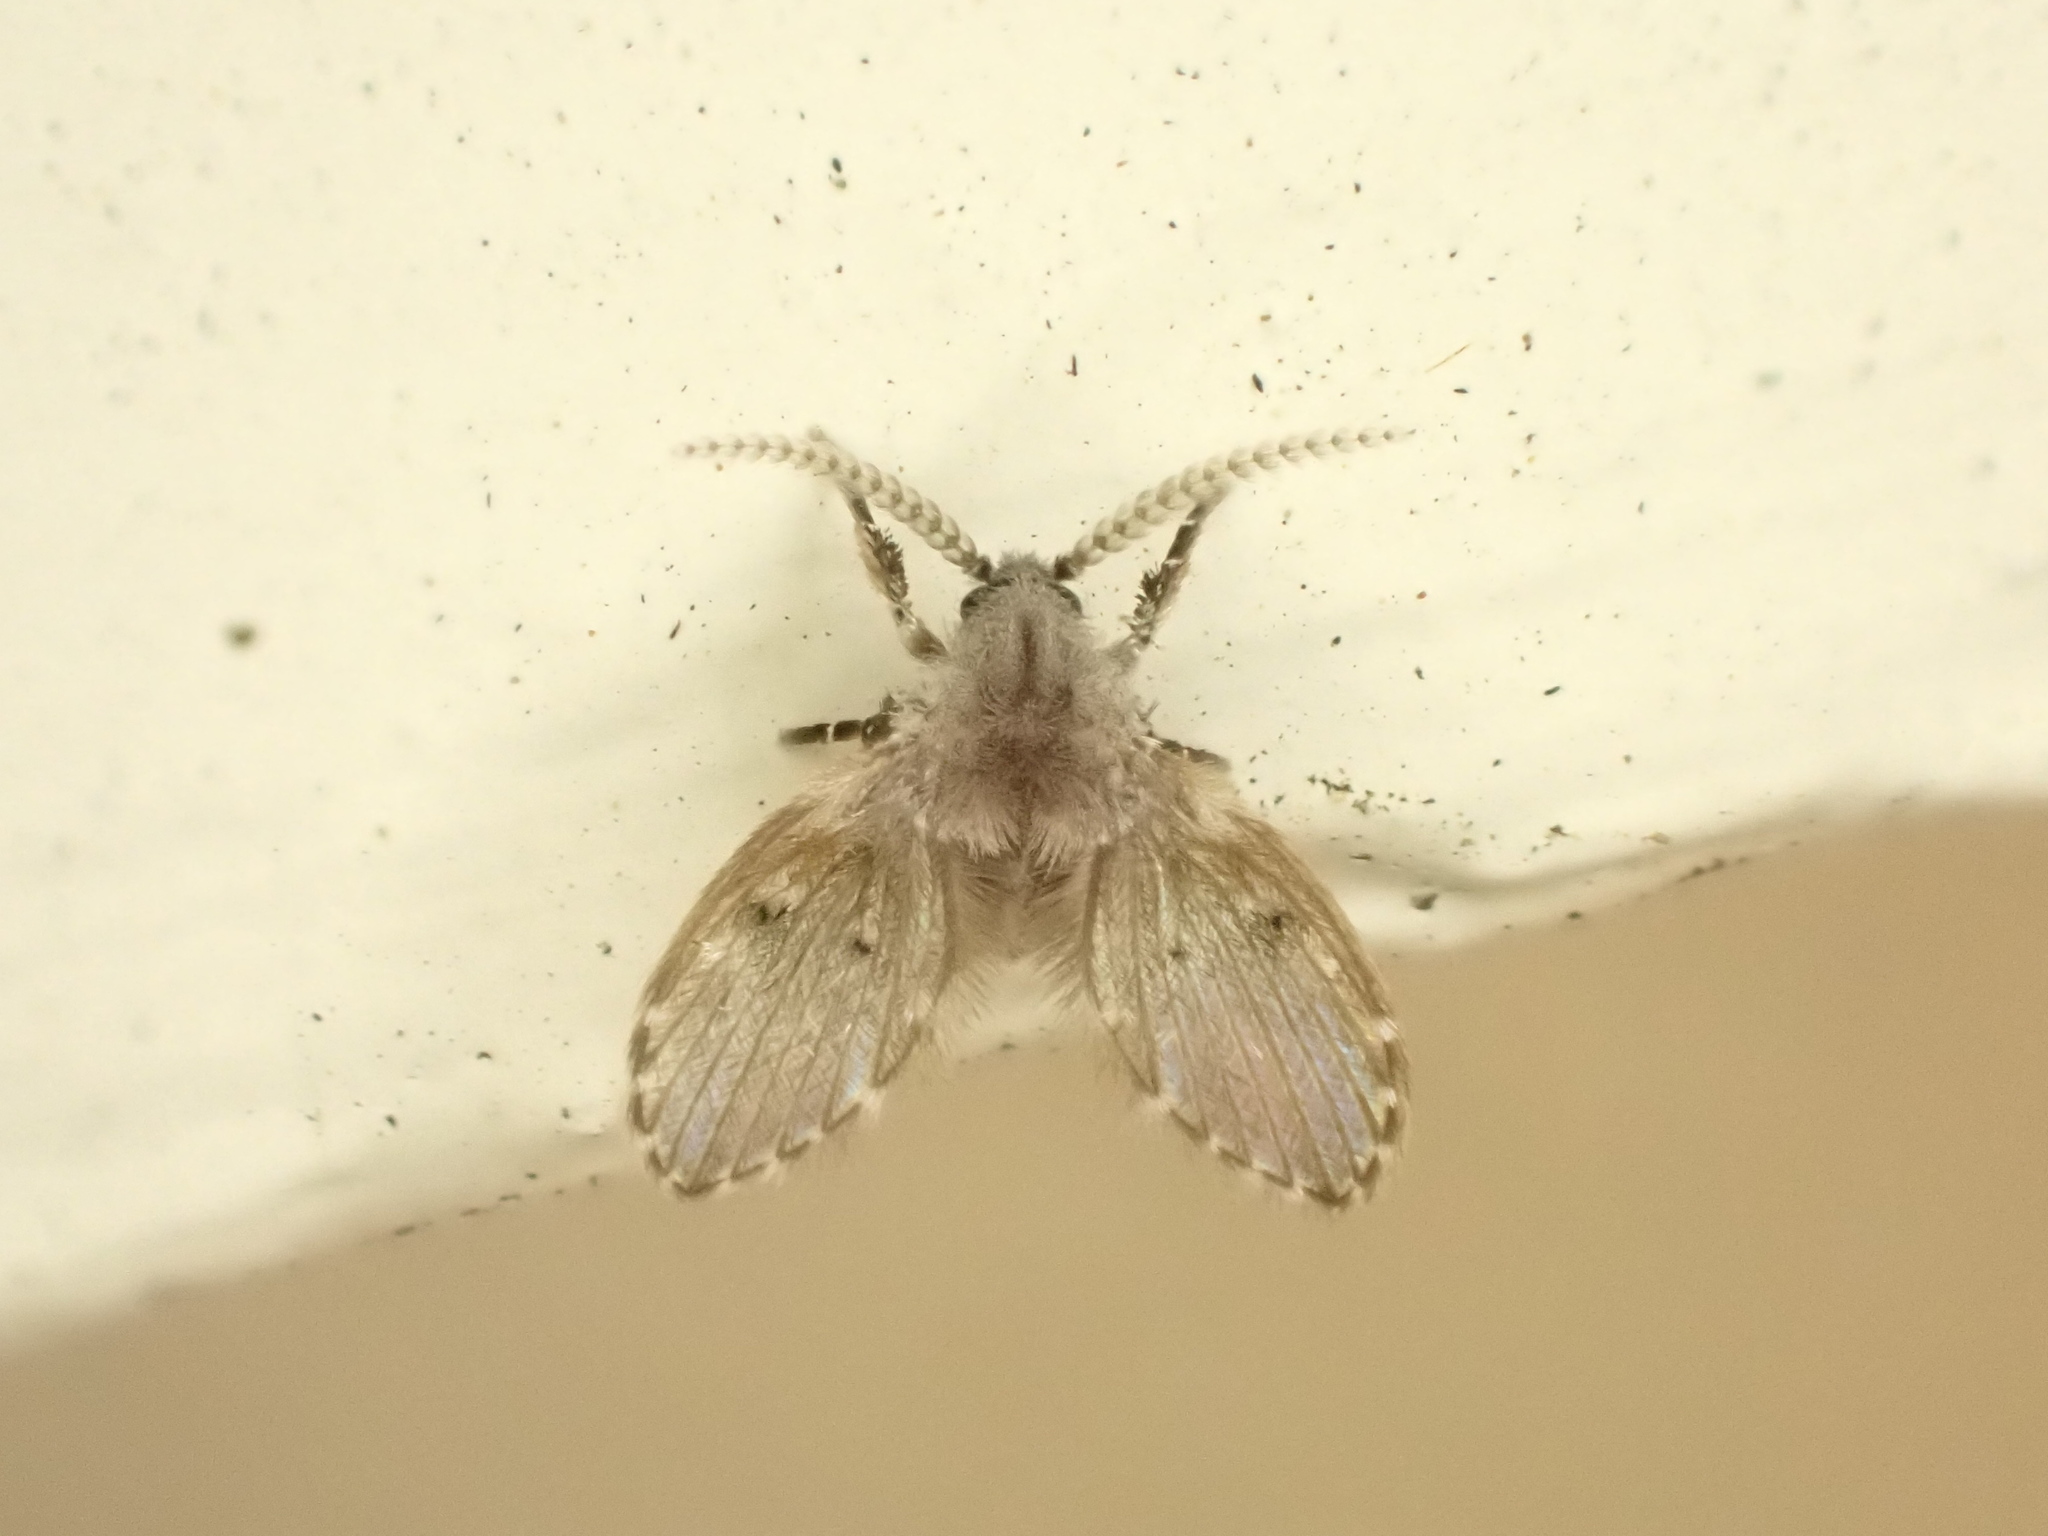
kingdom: Animalia
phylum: Arthropoda
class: Insecta
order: Diptera
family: Psychodidae
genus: Clogmia
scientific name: Clogmia albipunctatus
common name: White-spotted moth fly
